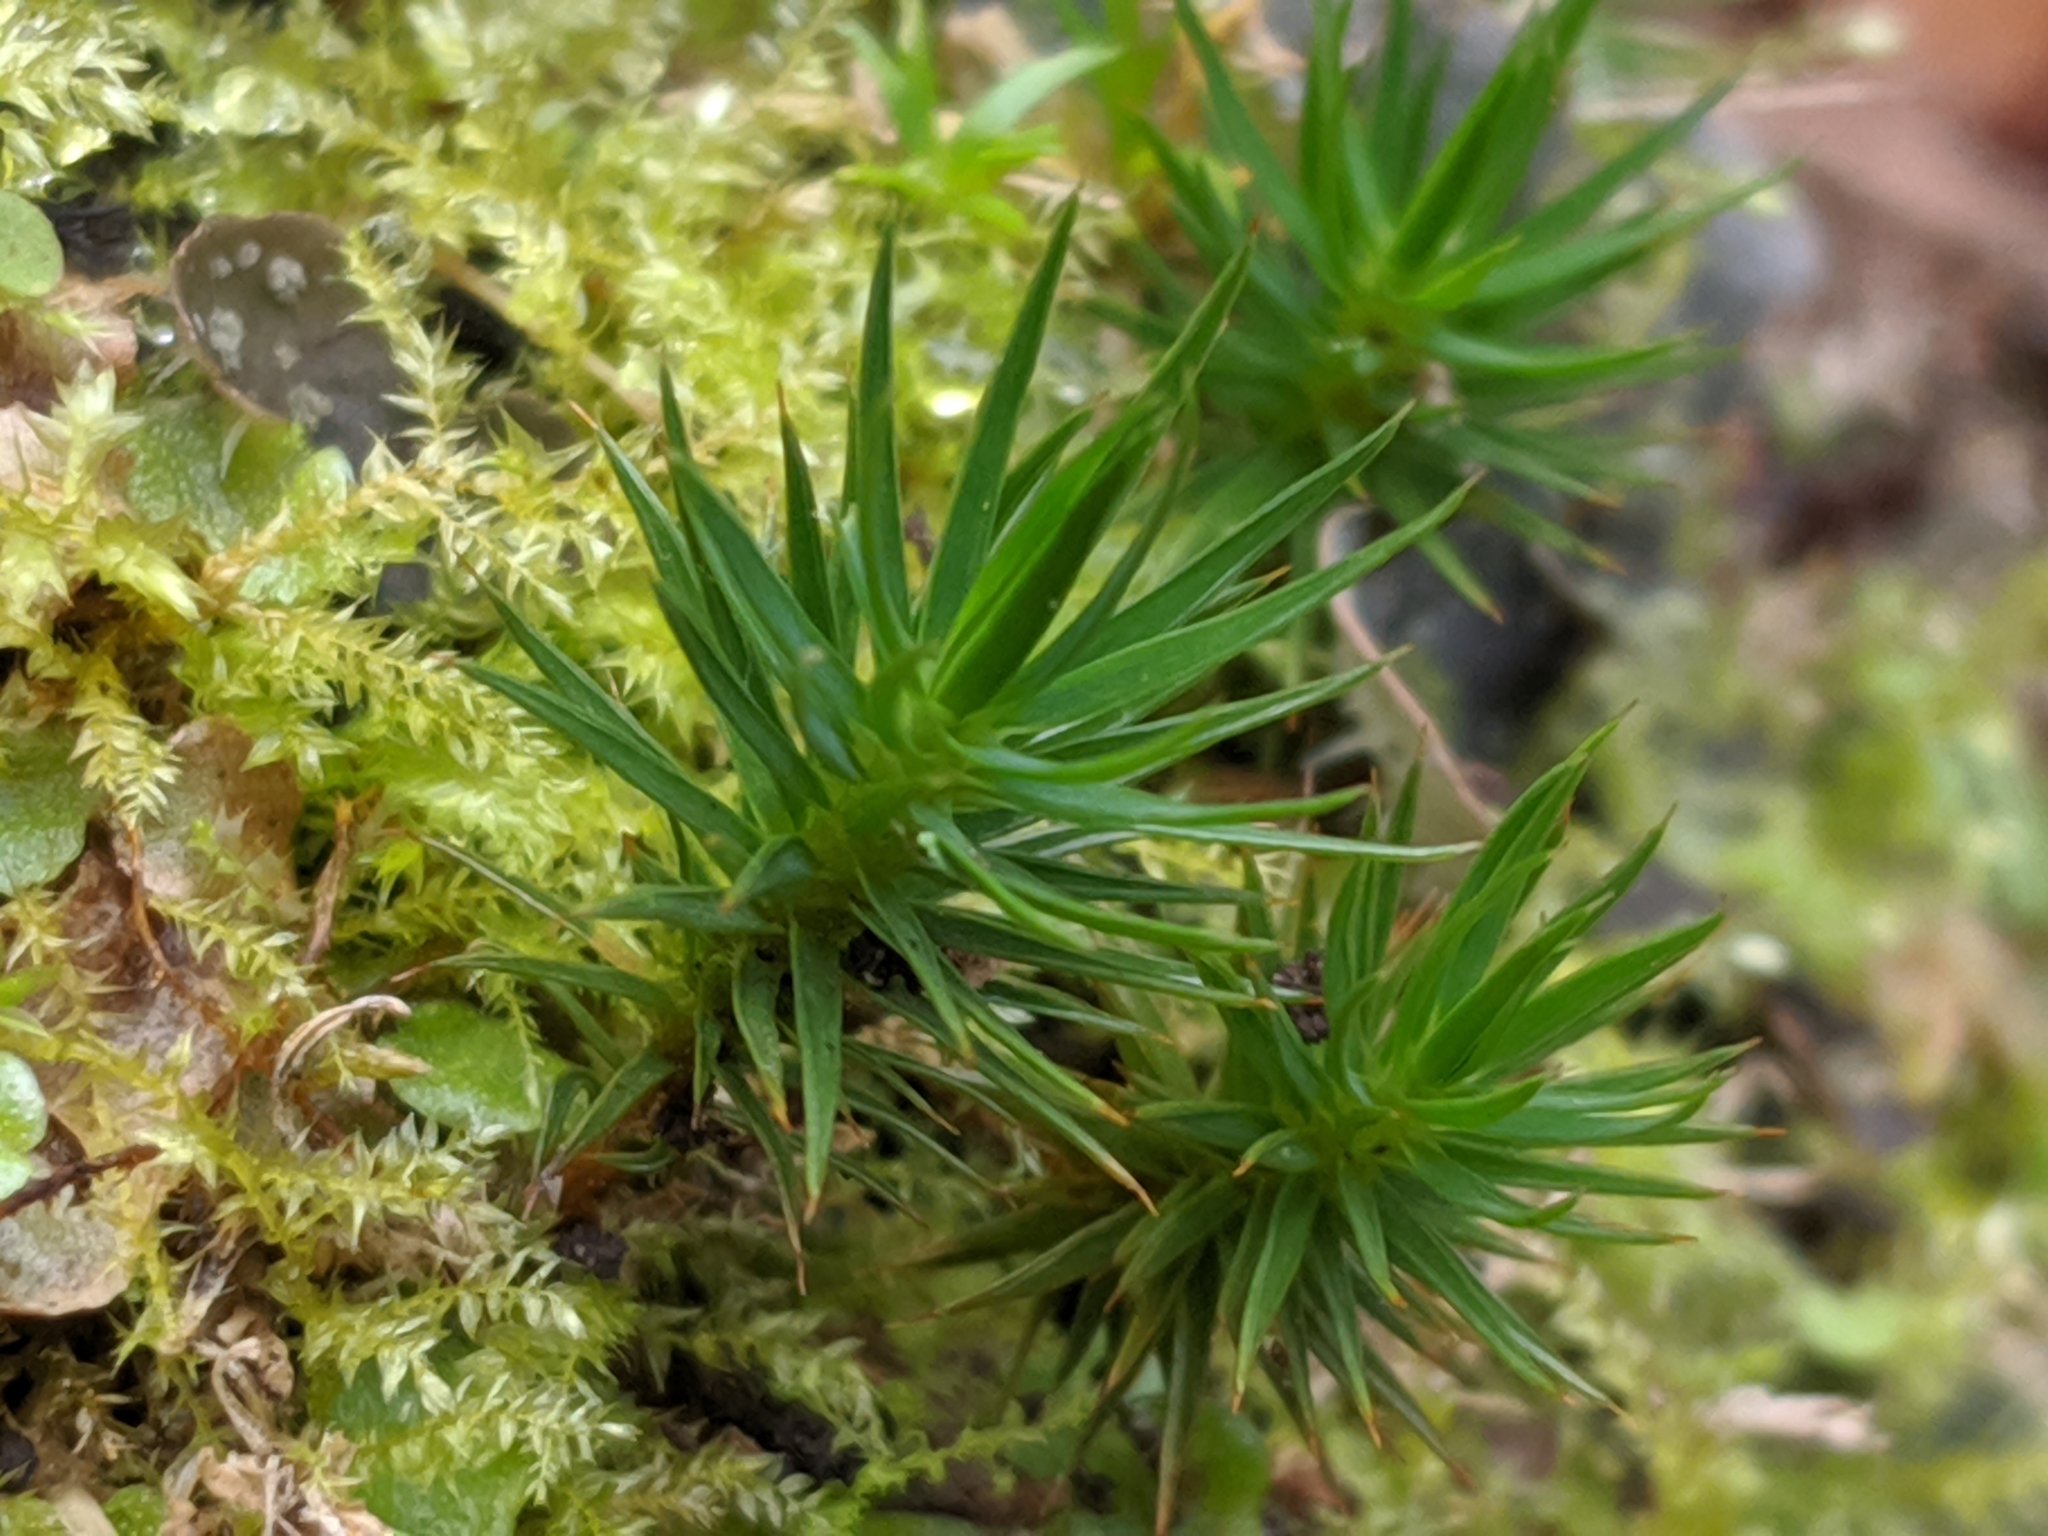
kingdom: Plantae
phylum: Bryophyta
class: Polytrichopsida
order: Polytrichales
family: Polytrichaceae
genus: Polytrichum
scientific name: Polytrichum juniperinum
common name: Juniper haircap moss
